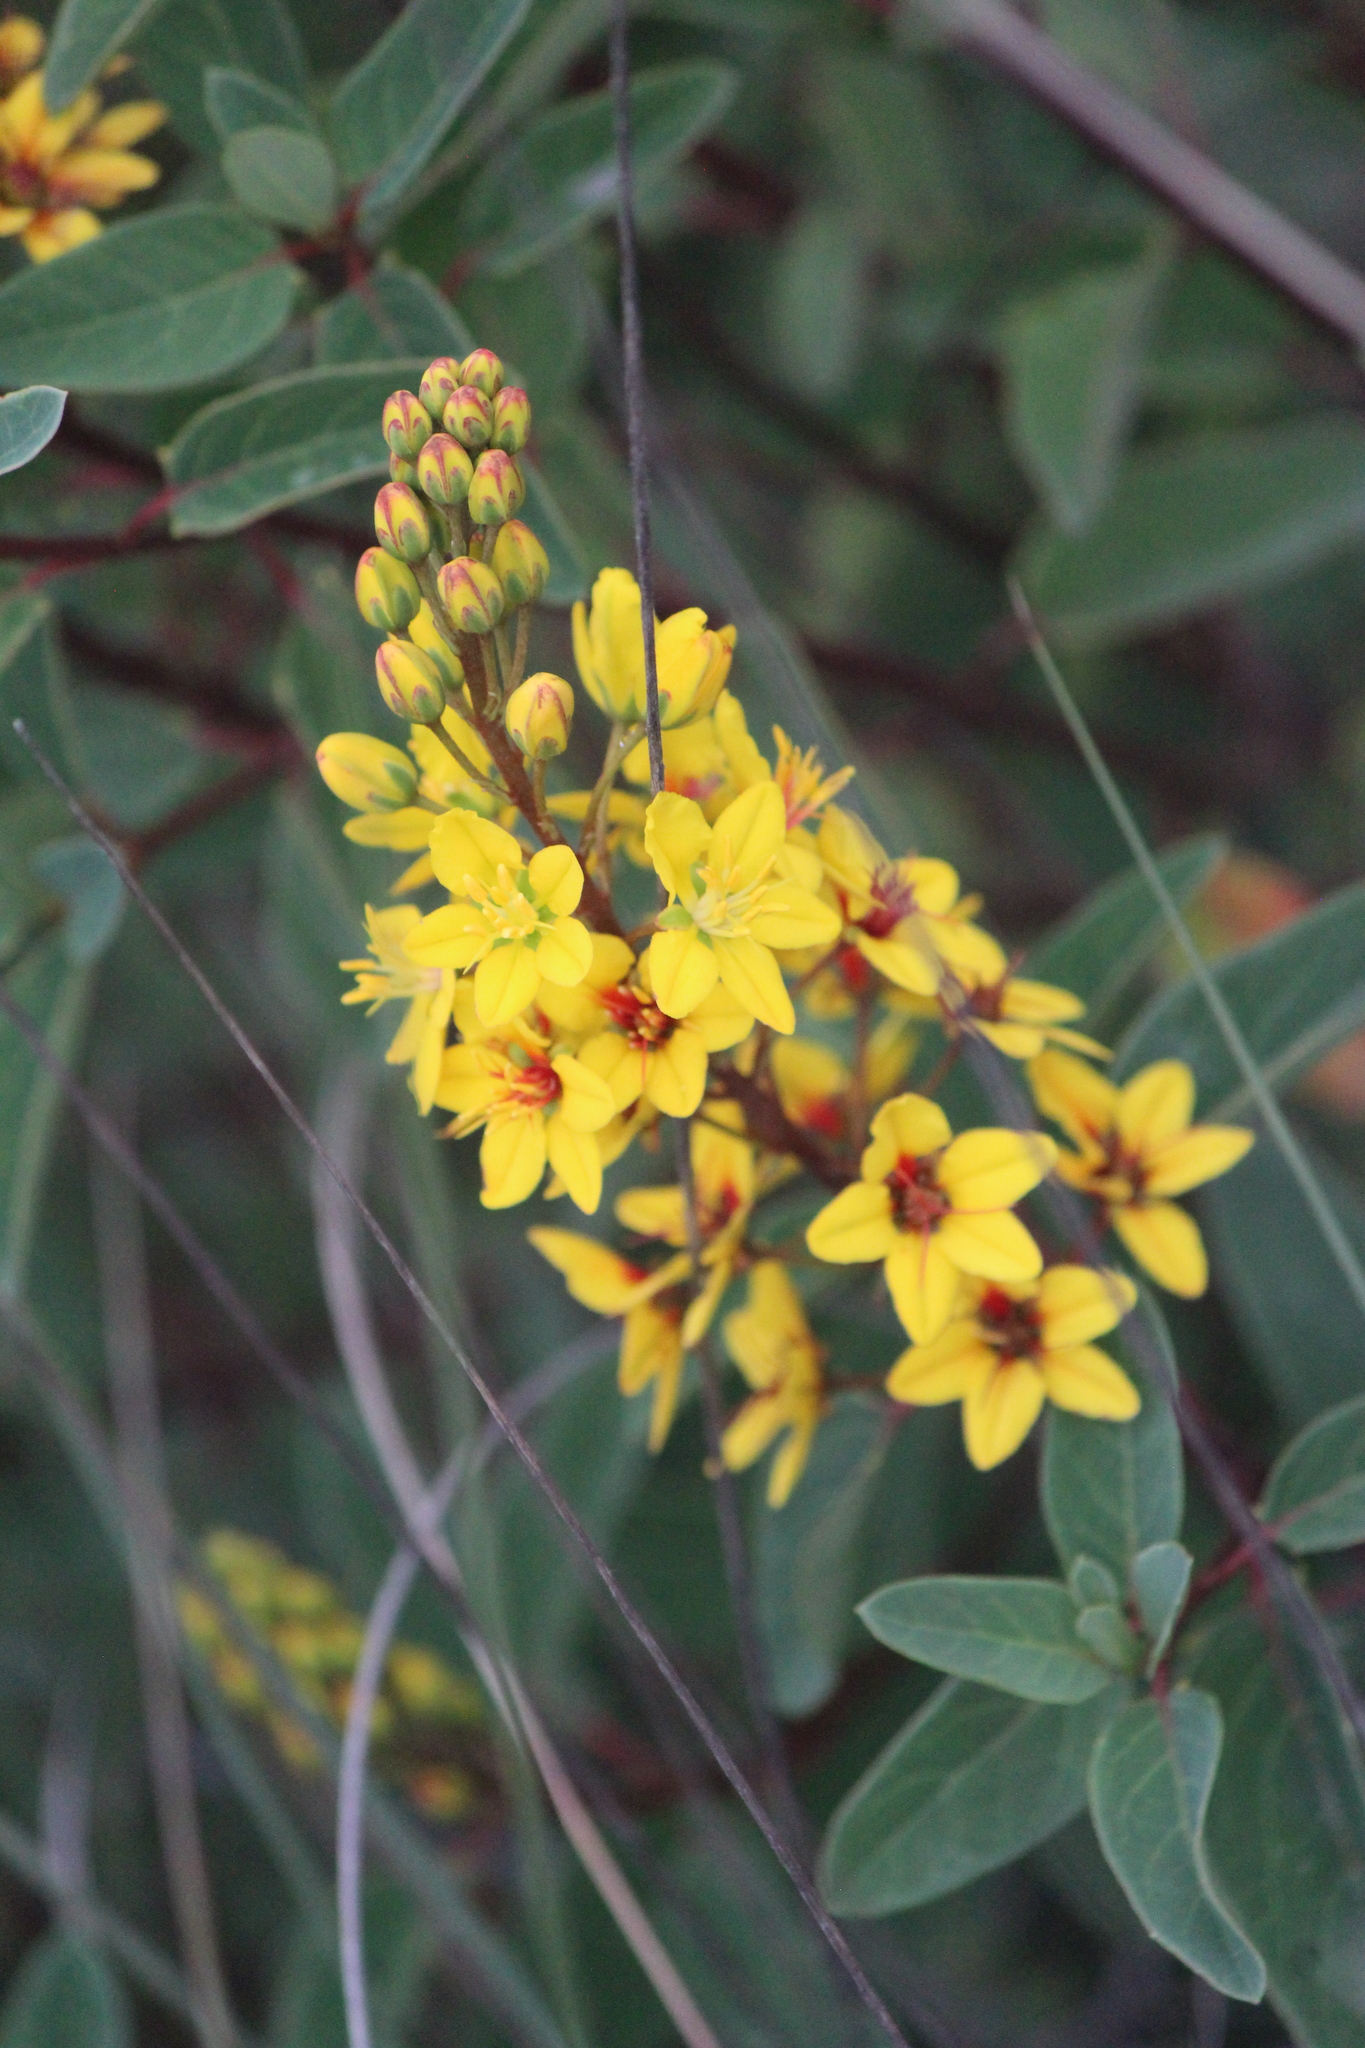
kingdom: Plantae
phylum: Tracheophyta
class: Magnoliopsida
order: Malpighiales
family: Malpighiaceae
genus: Galphimia
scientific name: Galphimia glauca
